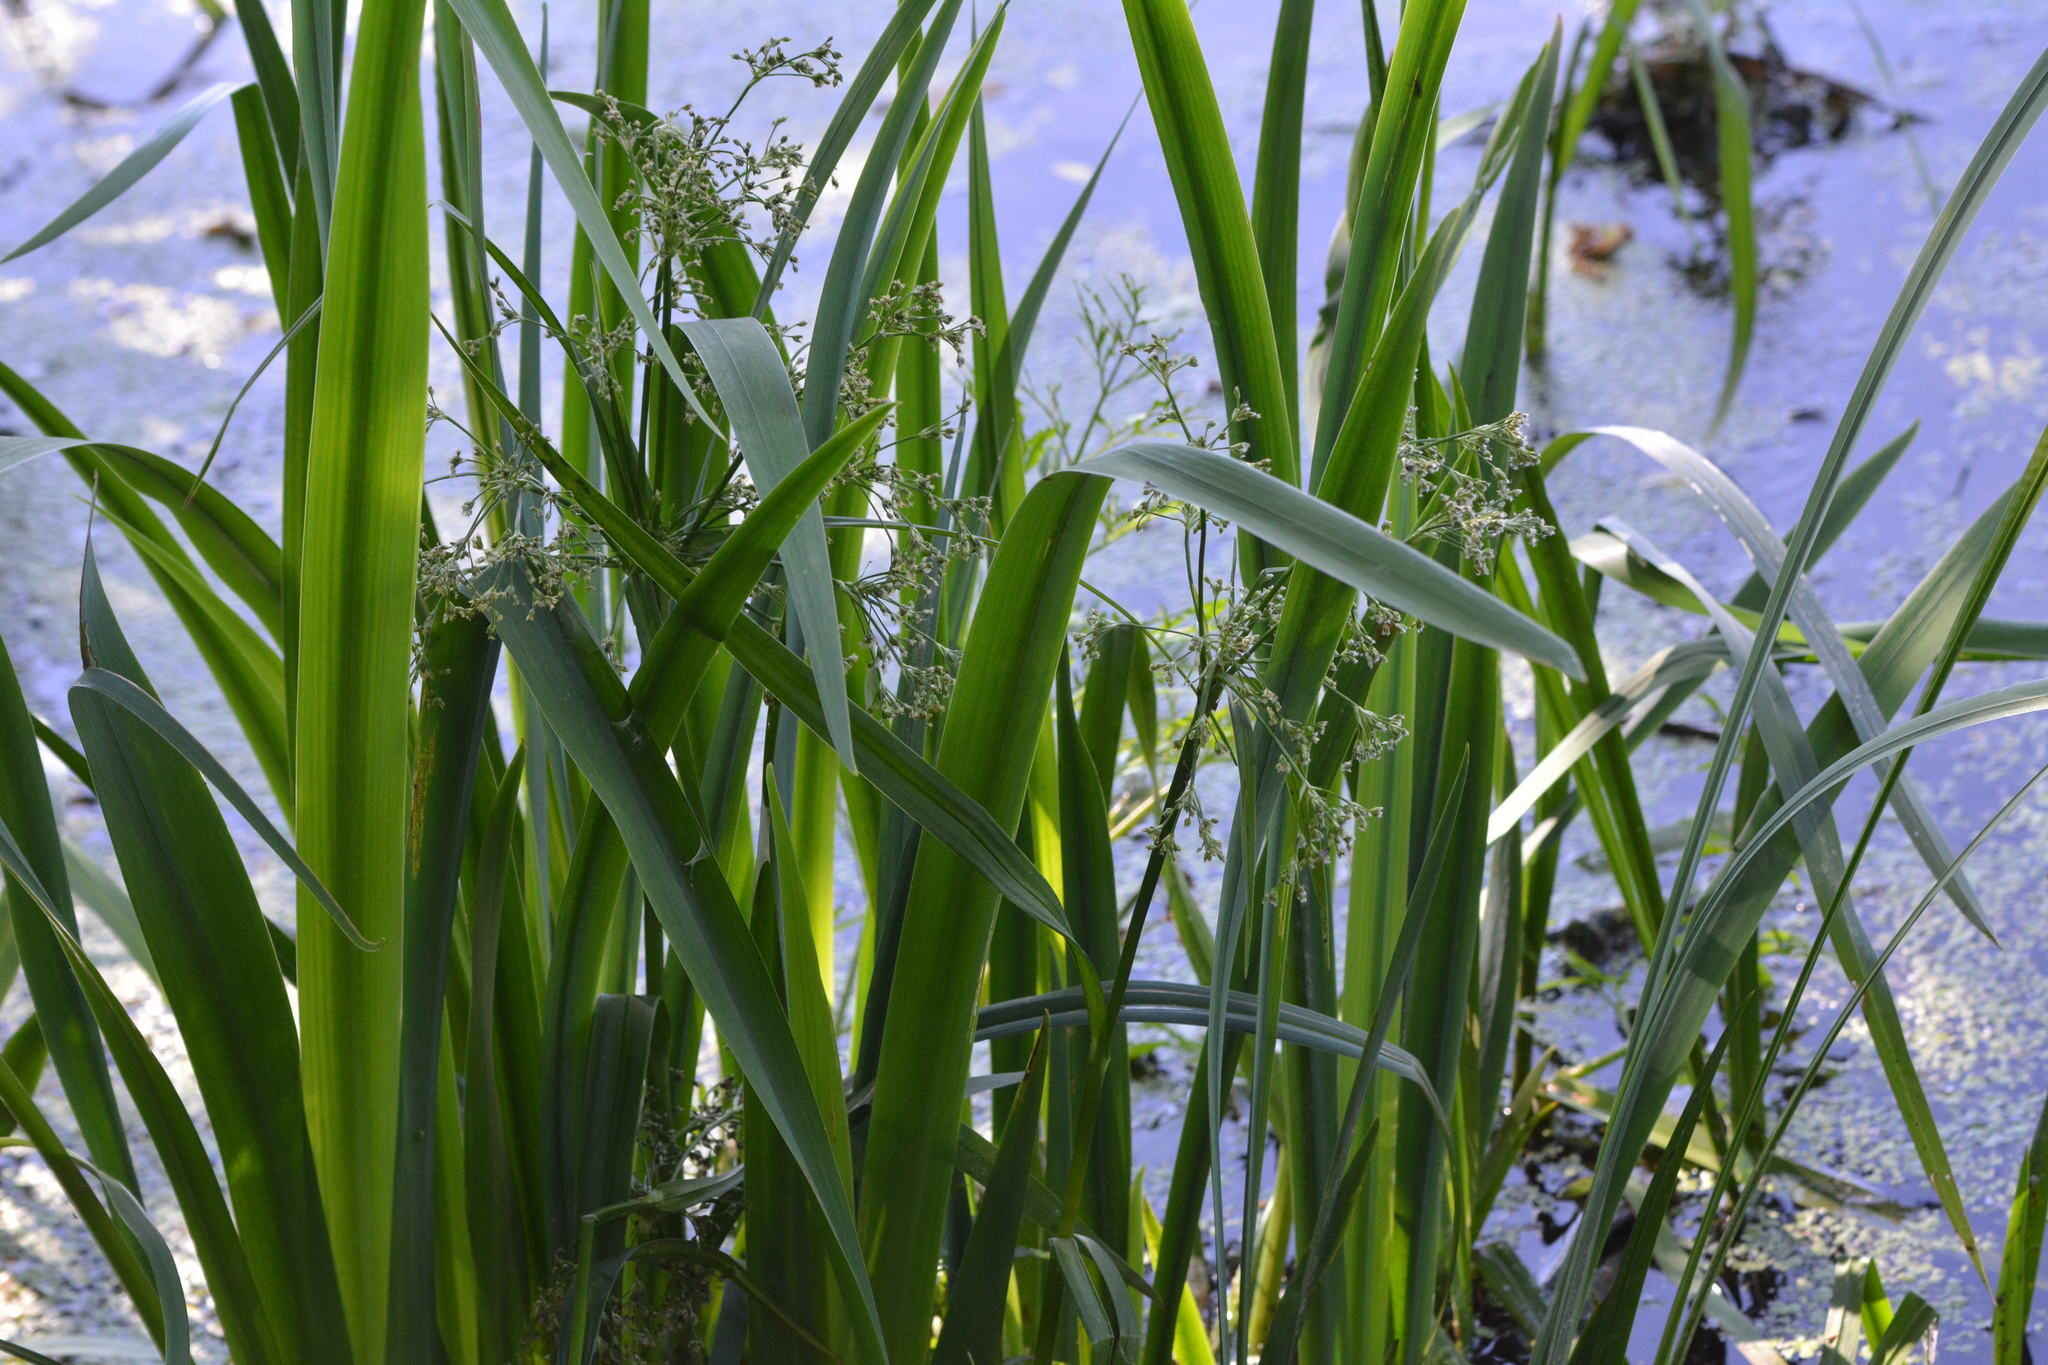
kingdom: Plantae
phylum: Tracheophyta
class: Liliopsida
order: Poales
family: Cyperaceae
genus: Scirpus
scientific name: Scirpus sylvaticus
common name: Wood club-rush
